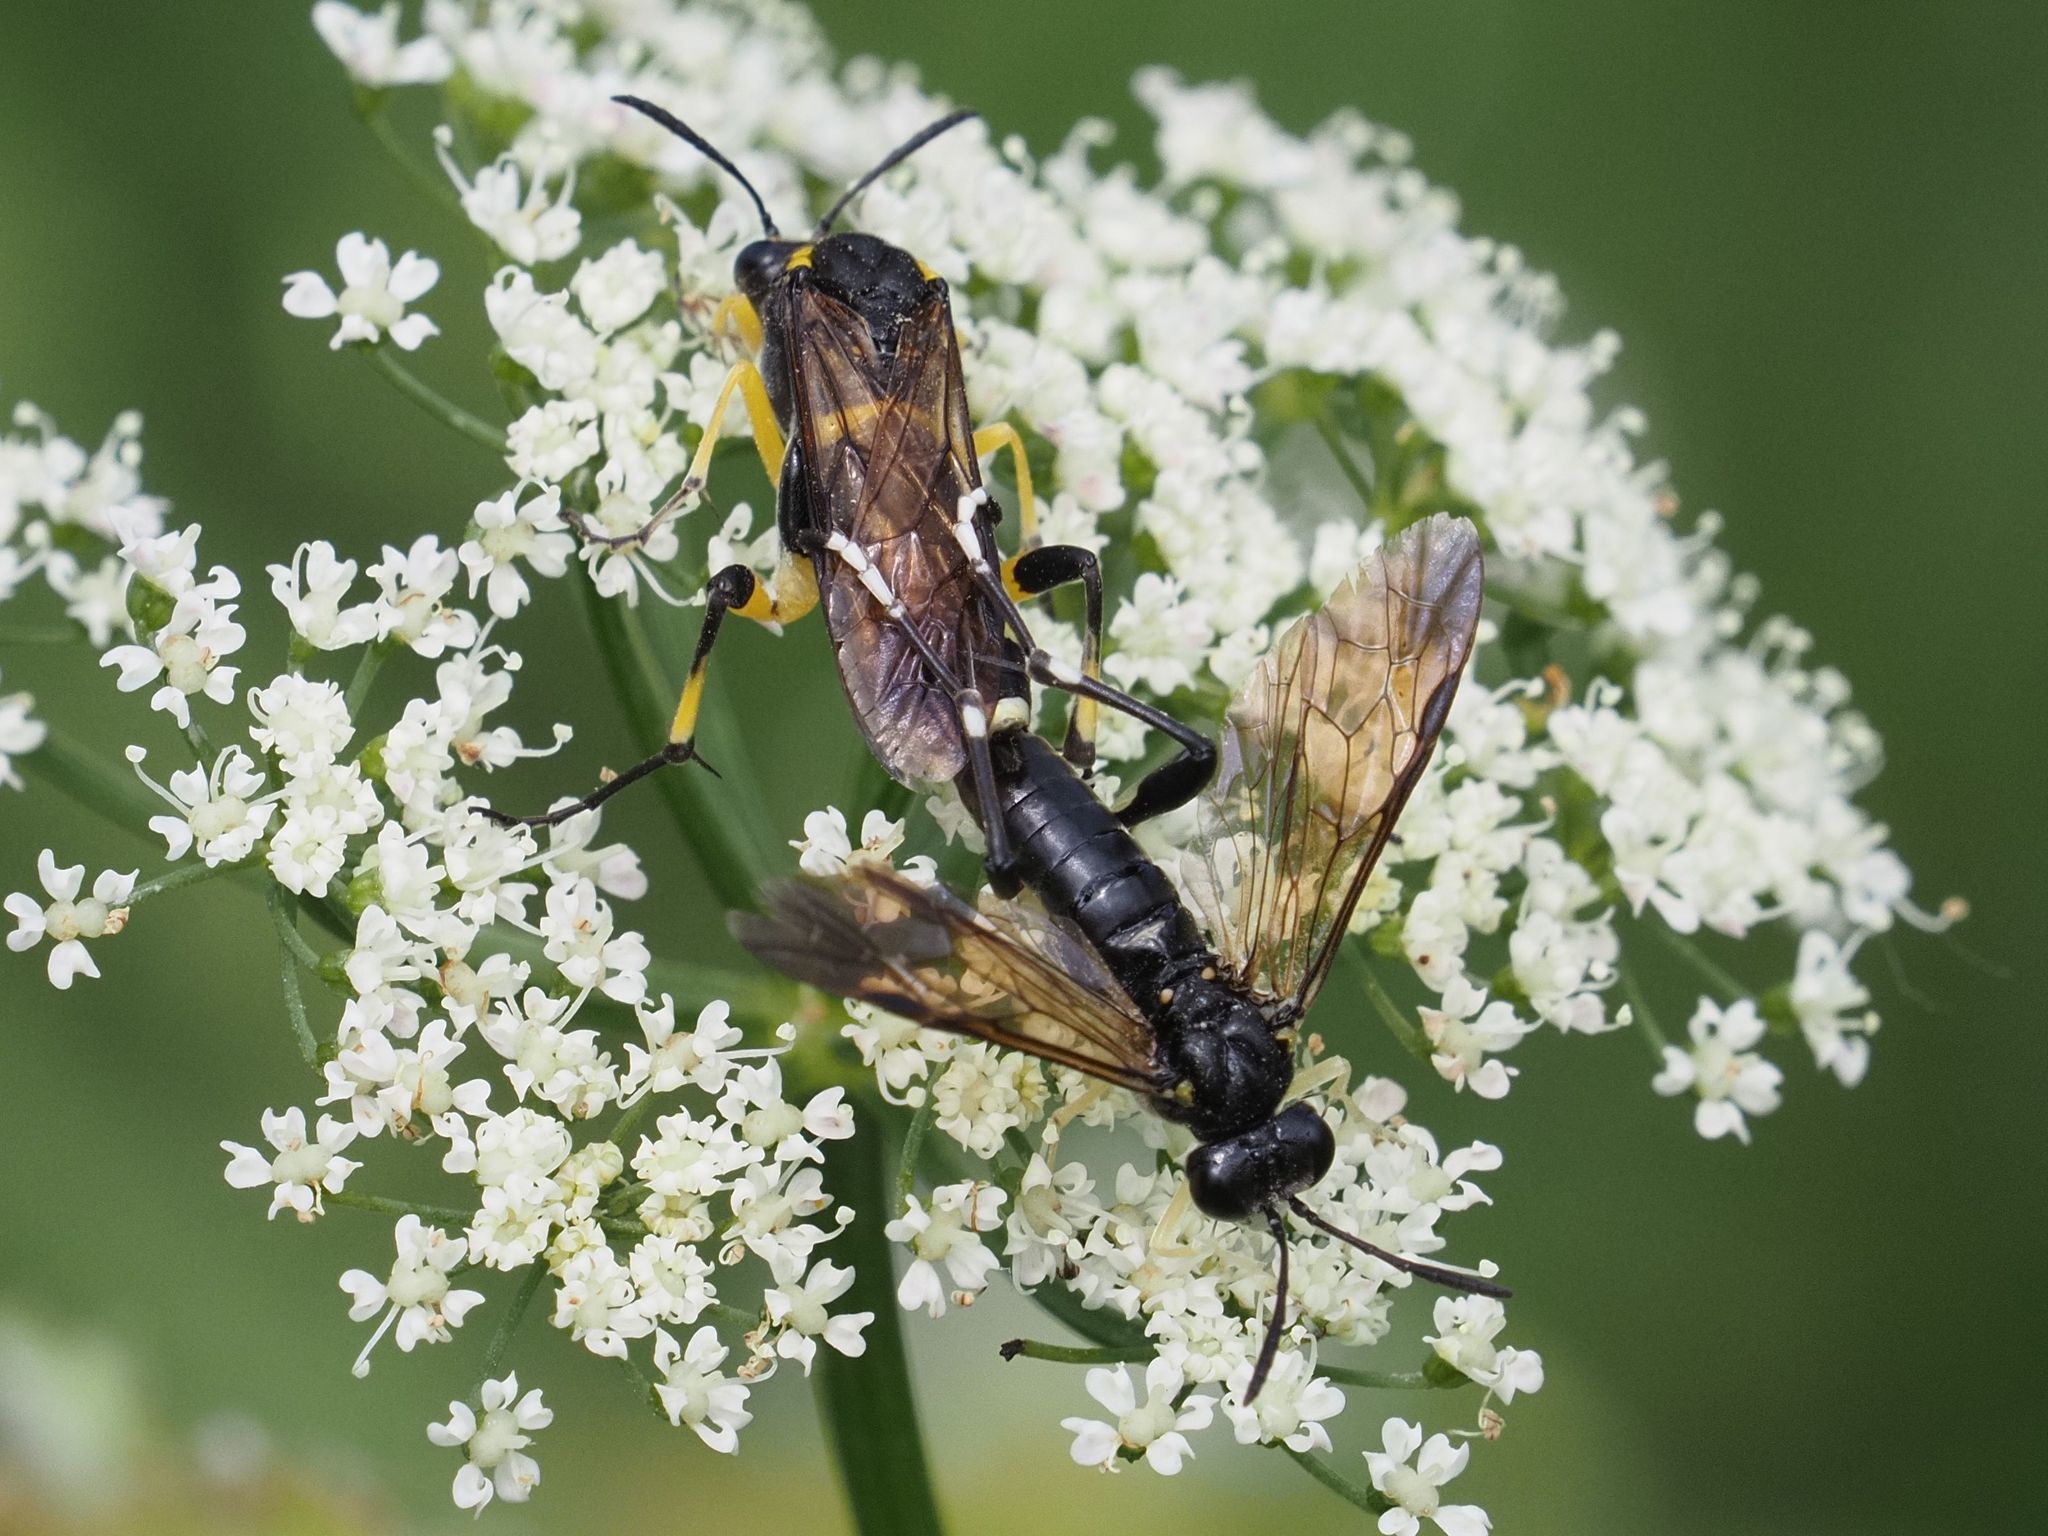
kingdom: Animalia
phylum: Arthropoda
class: Insecta
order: Hymenoptera
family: Tenthredinidae
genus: Macrophya
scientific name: Macrophya montana
